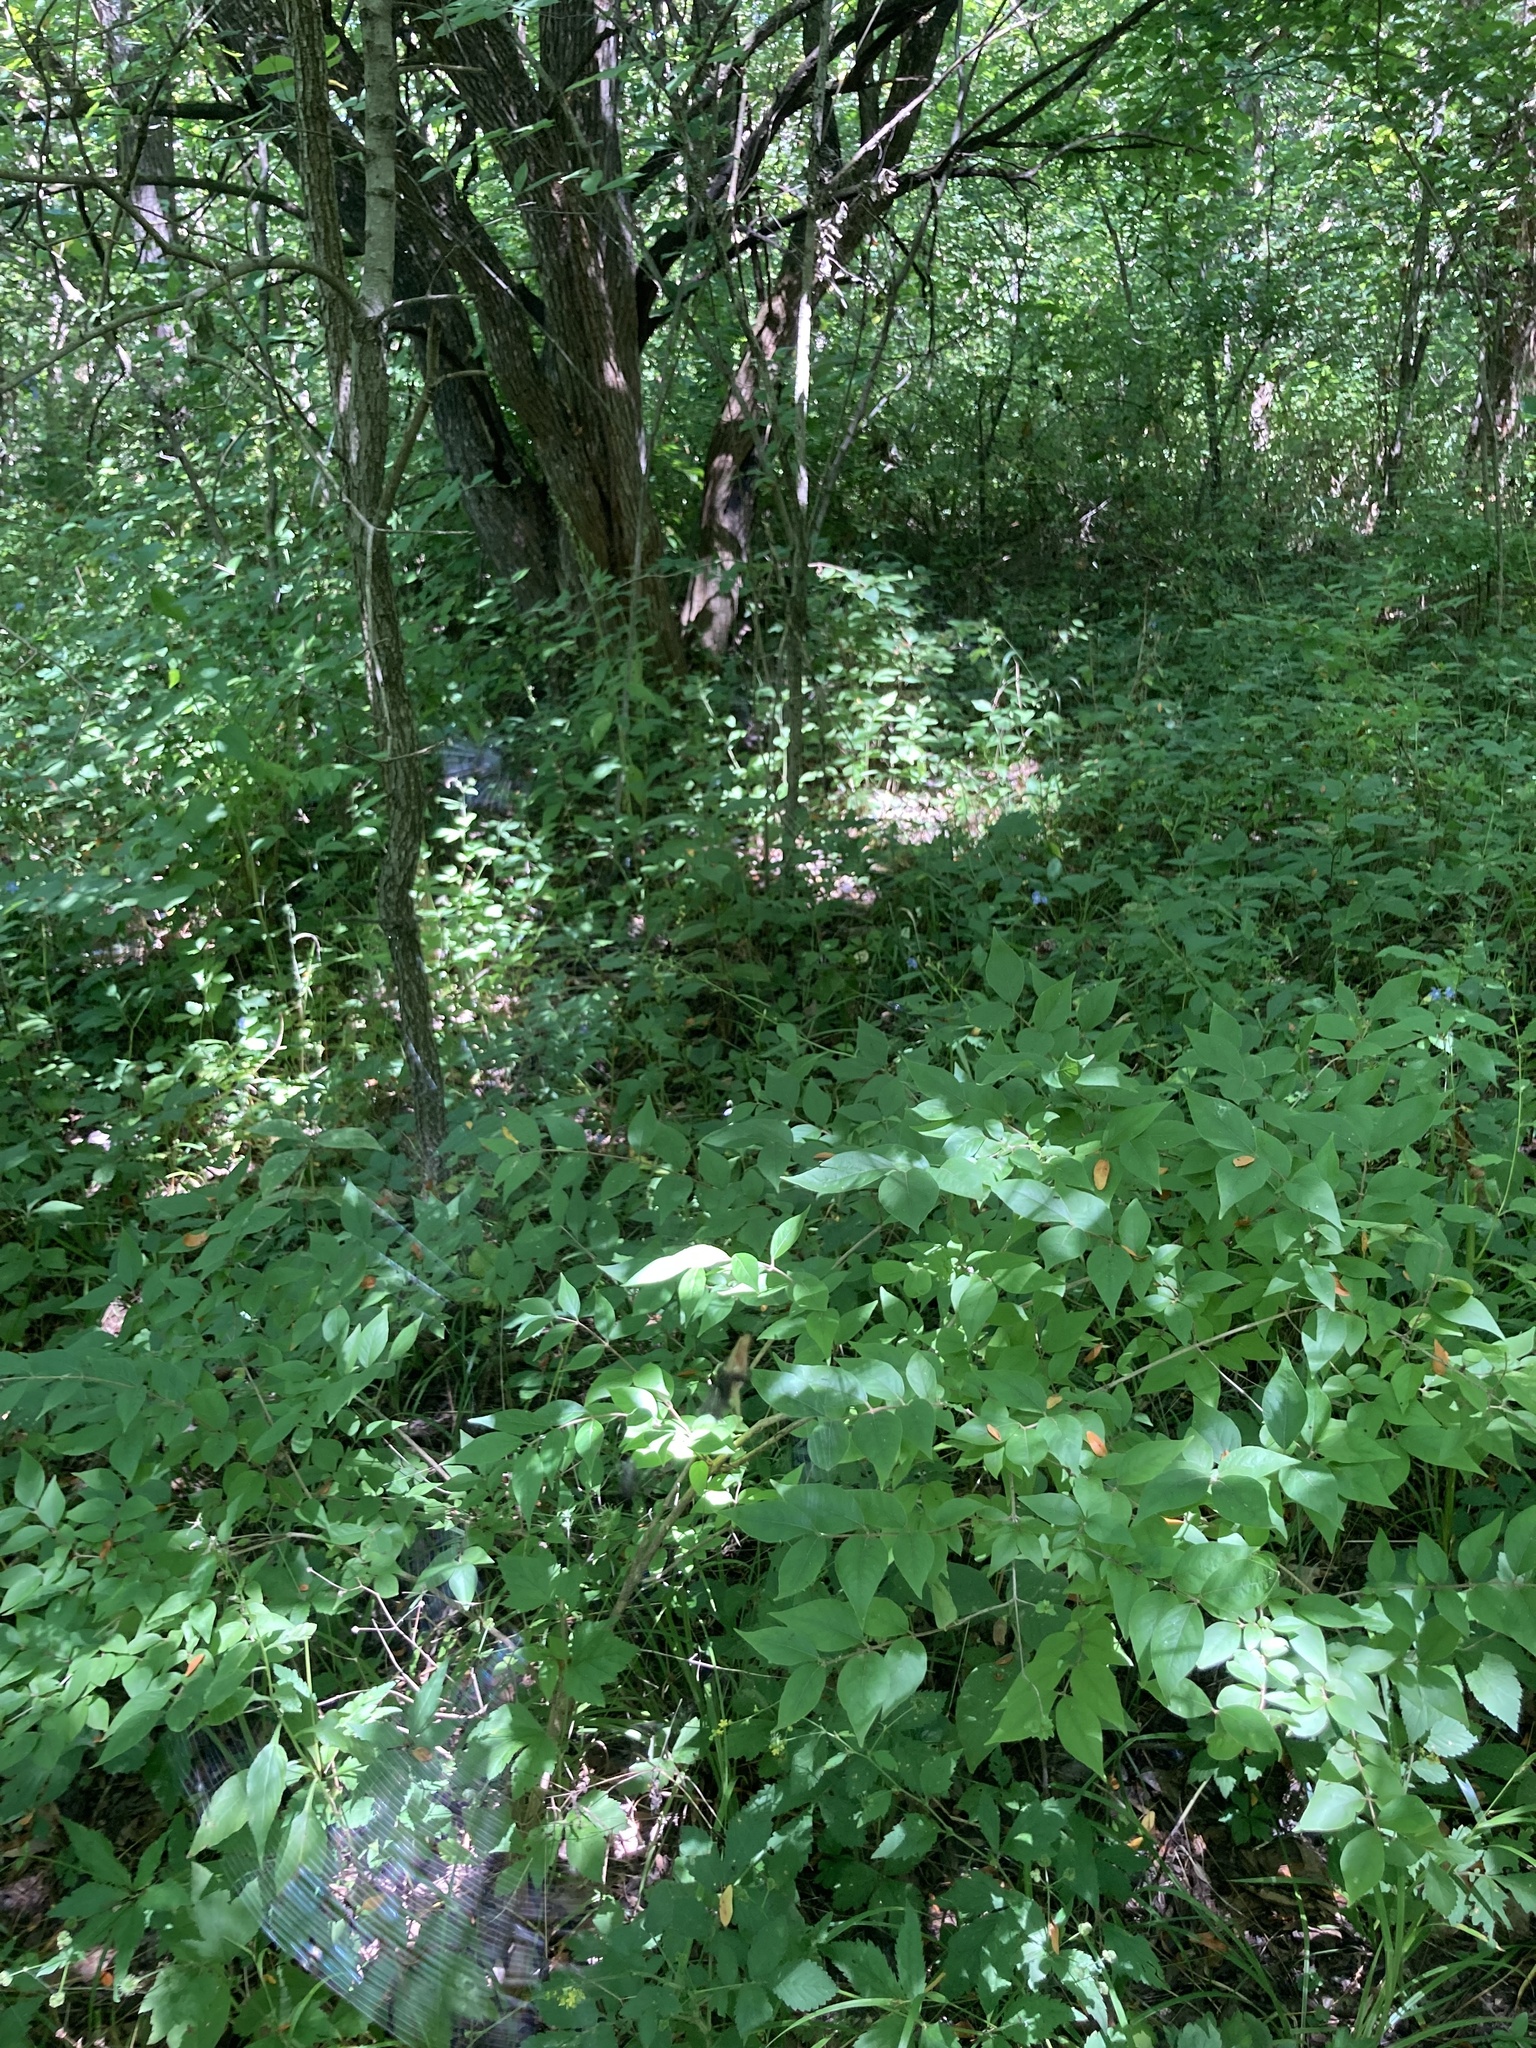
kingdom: Plantae
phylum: Tracheophyta
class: Magnoliopsida
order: Dipsacales
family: Caprifoliaceae
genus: Lonicera
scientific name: Lonicera maackii
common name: Amur honeysuckle
